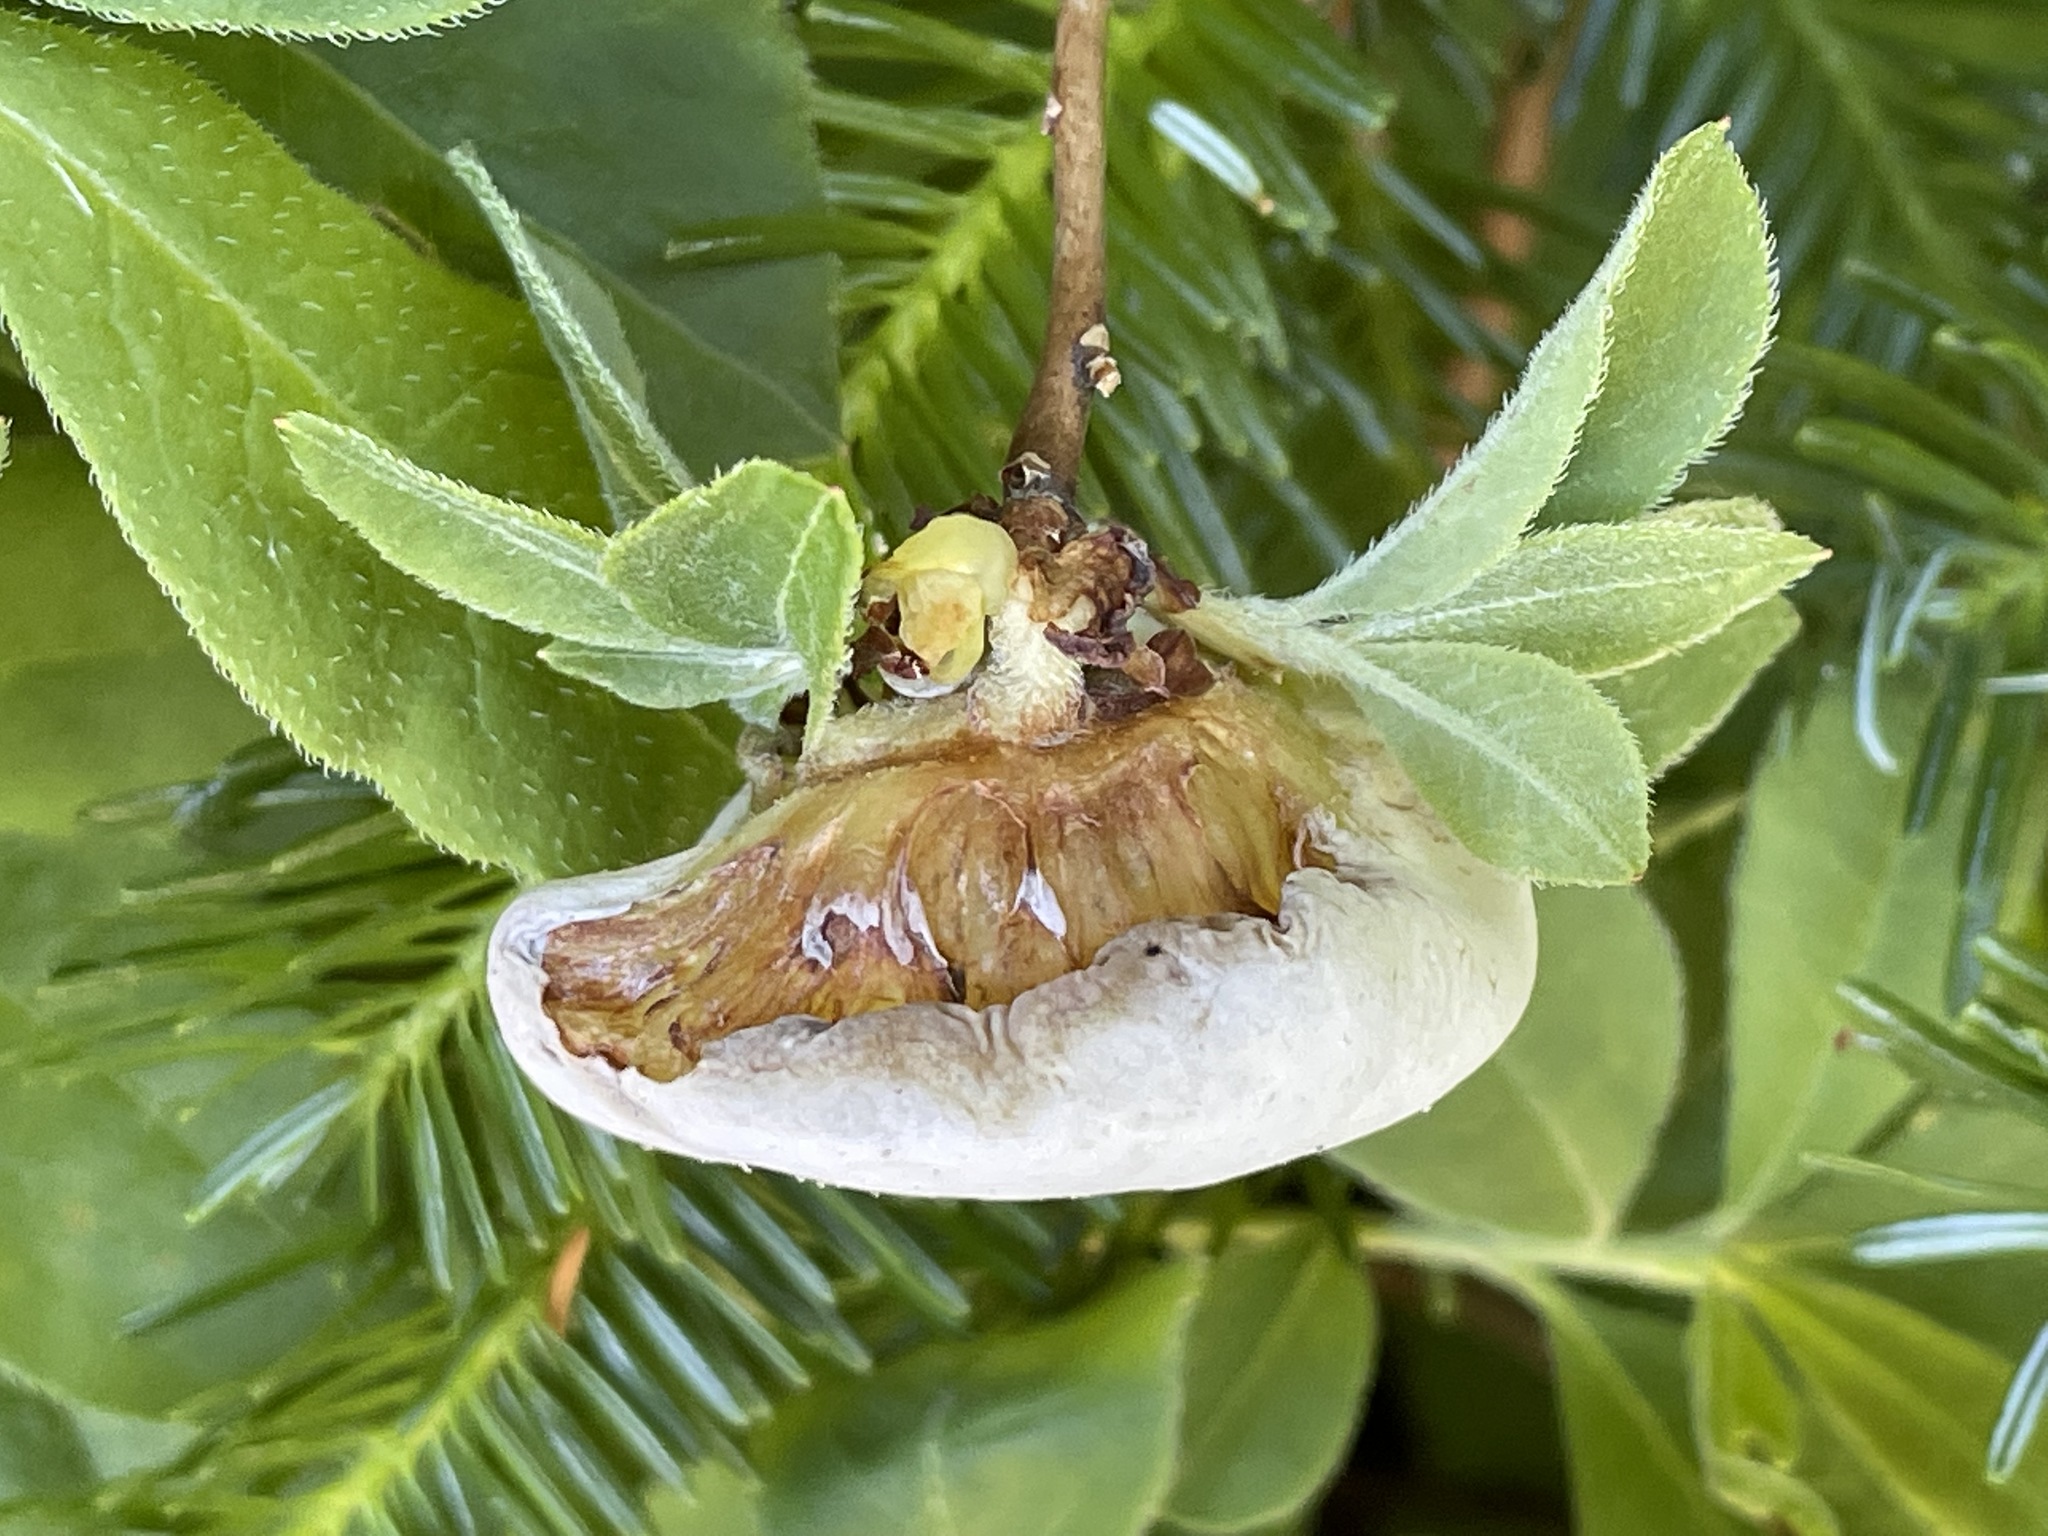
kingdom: Fungi
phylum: Basidiomycota
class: Exobasidiomycetes
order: Exobasidiales
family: Exobasidiaceae
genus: Exobasidium
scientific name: Exobasidium vaccinii
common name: Cowberry redleaf
